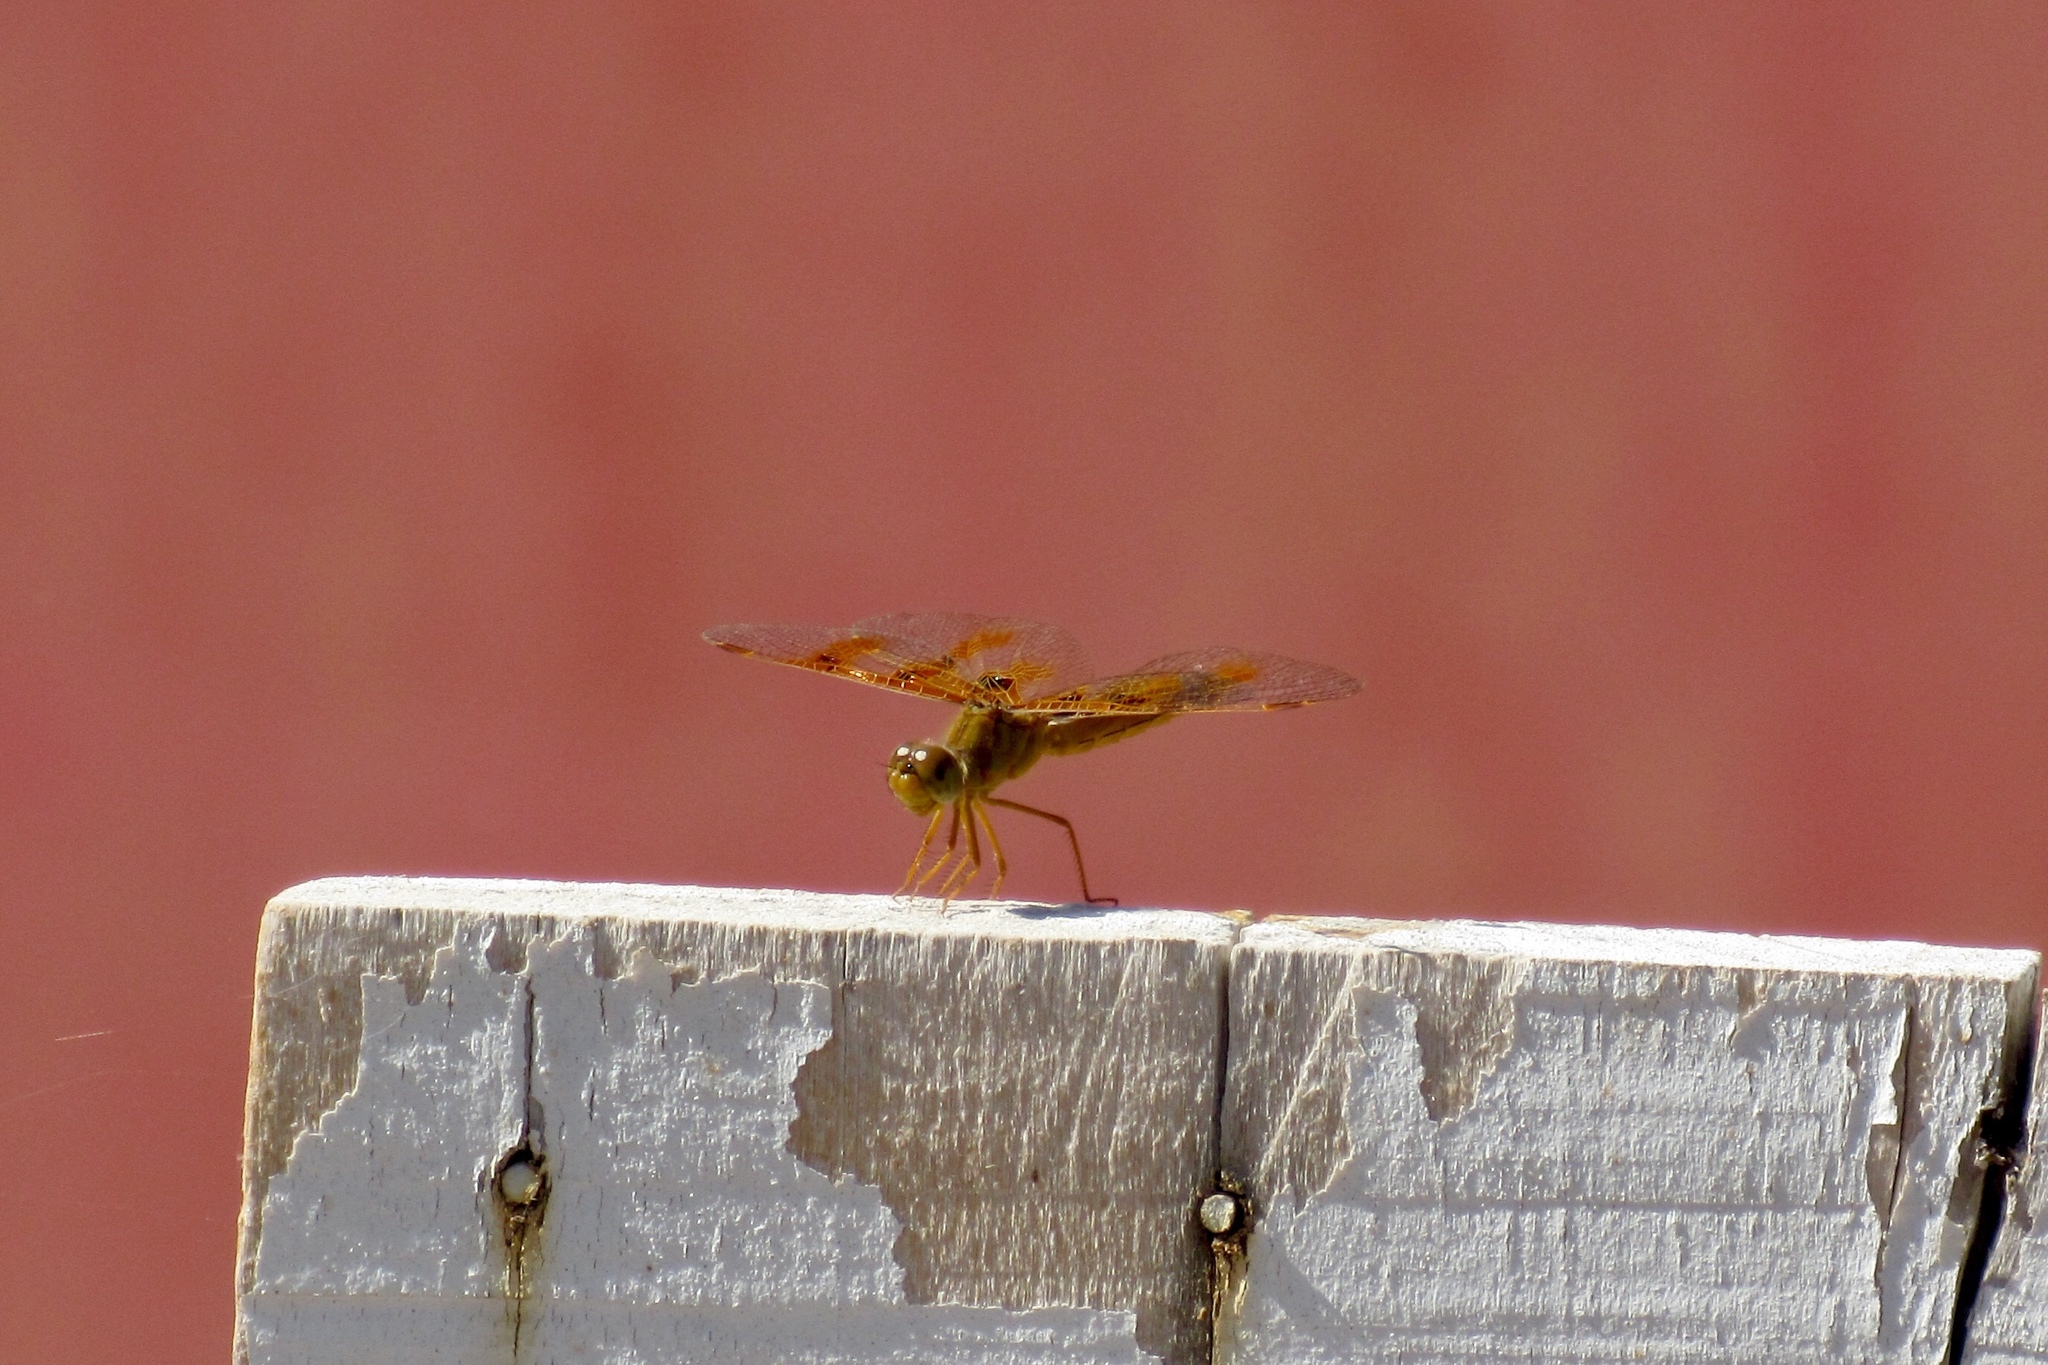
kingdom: Animalia
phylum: Arthropoda
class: Insecta
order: Odonata
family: Libellulidae
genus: Perithemis
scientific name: Perithemis intensa
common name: Mexican amberwing
